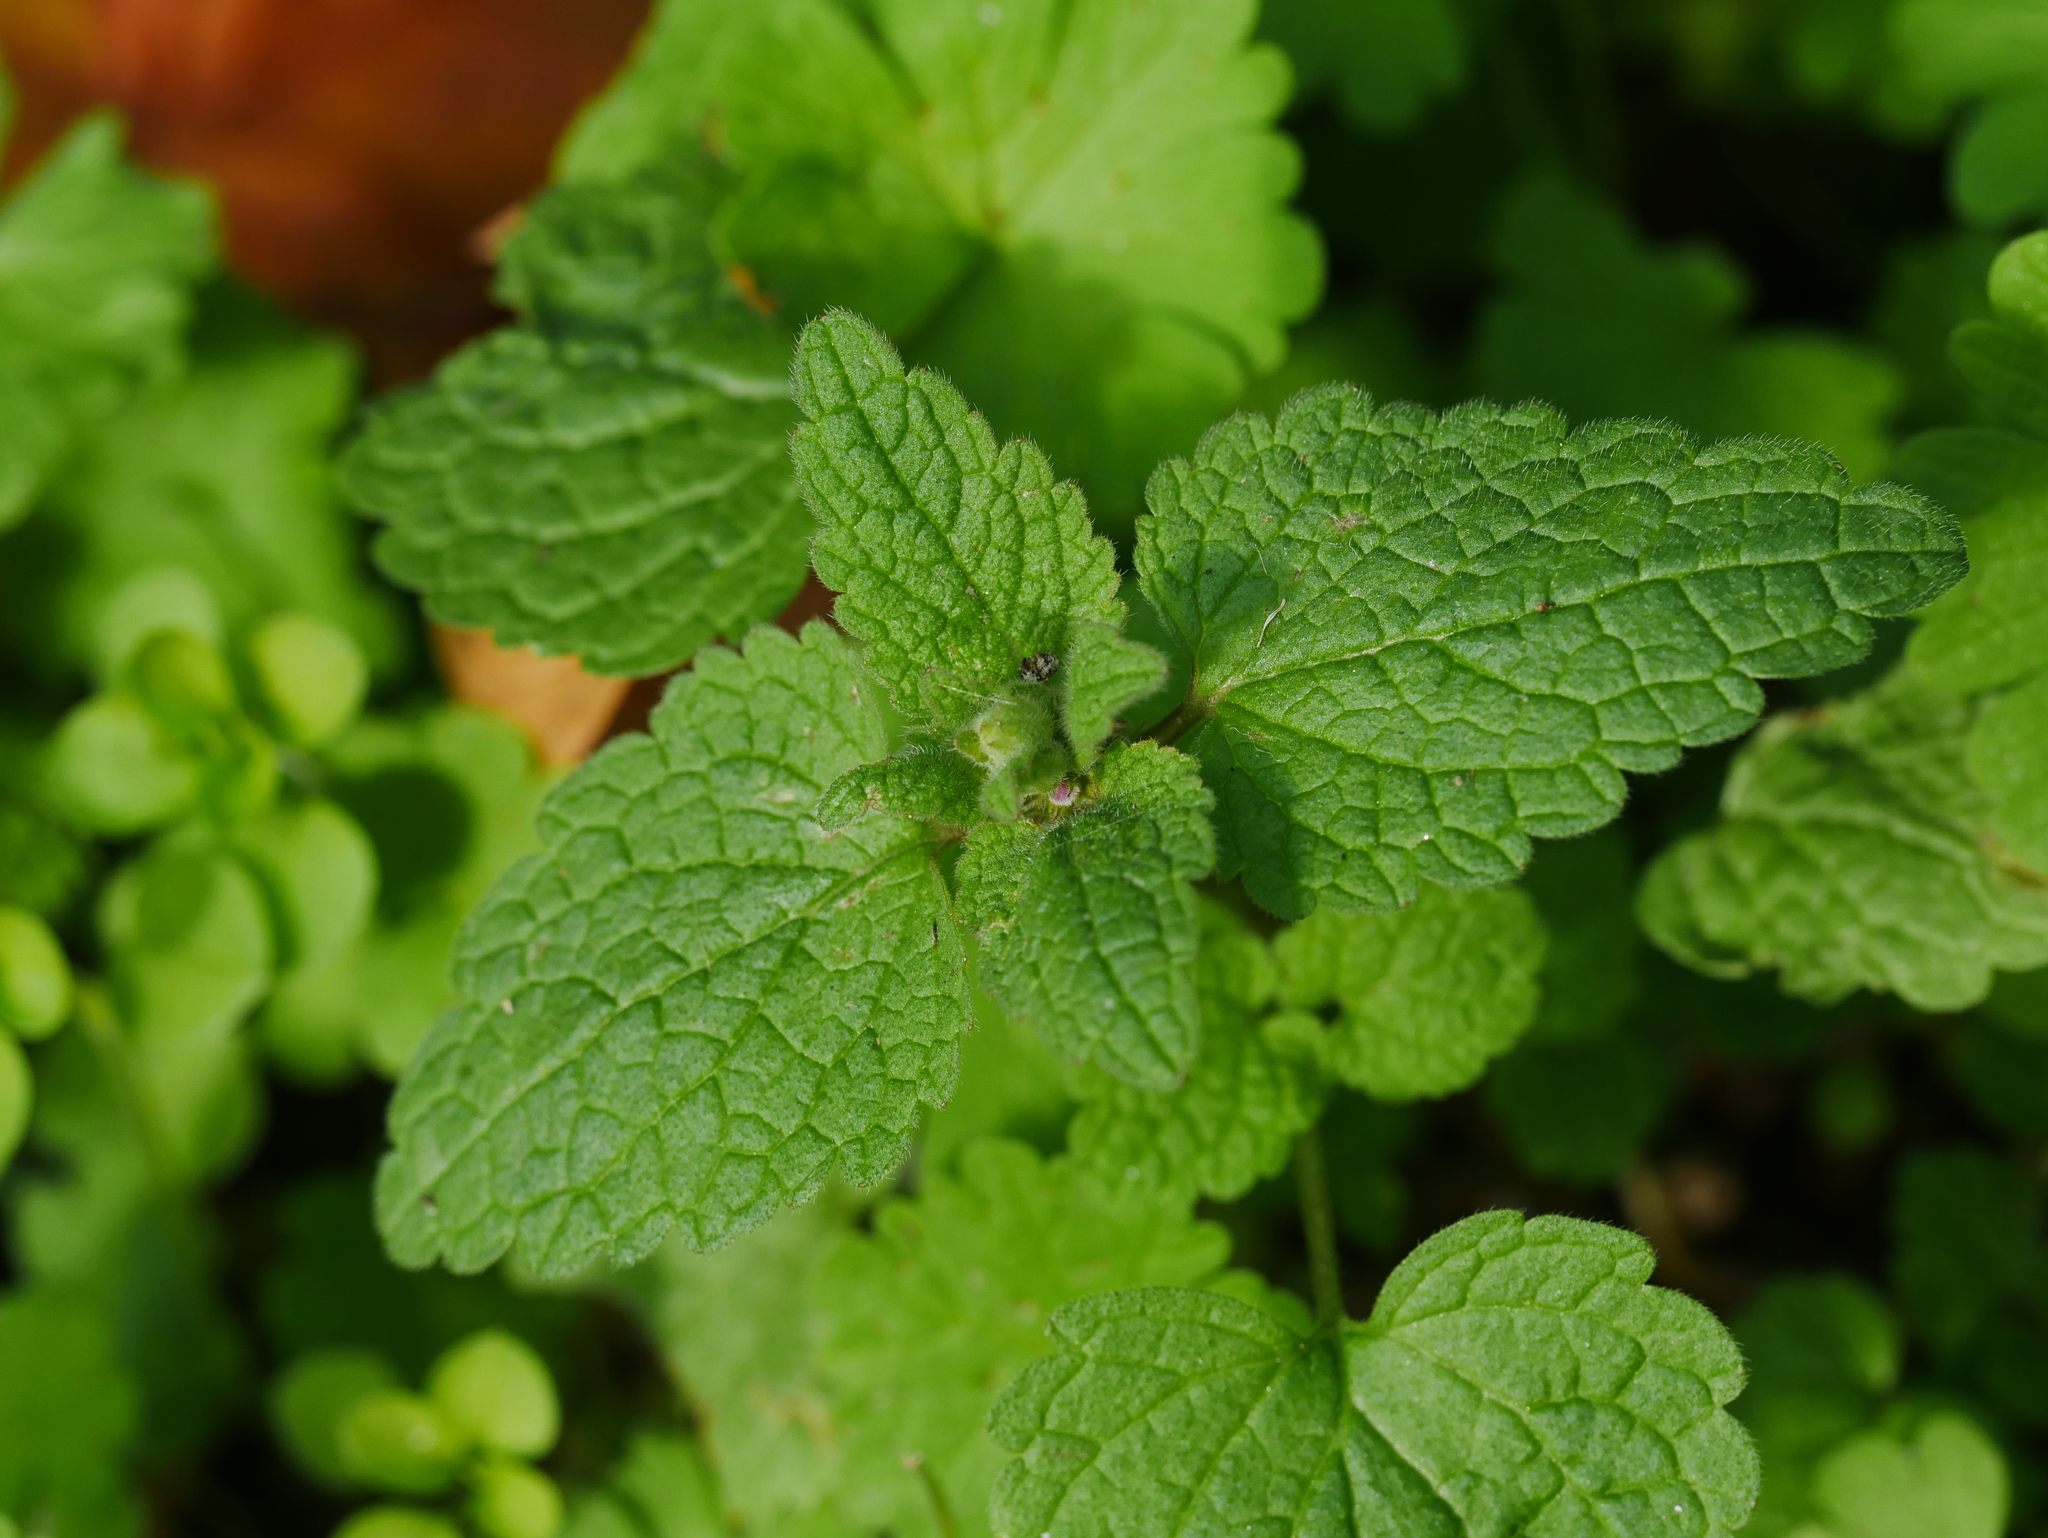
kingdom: Plantae
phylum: Tracheophyta
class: Magnoliopsida
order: Lamiales
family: Lamiaceae
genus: Lamium
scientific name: Lamium purpureum
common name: Red dead-nettle
